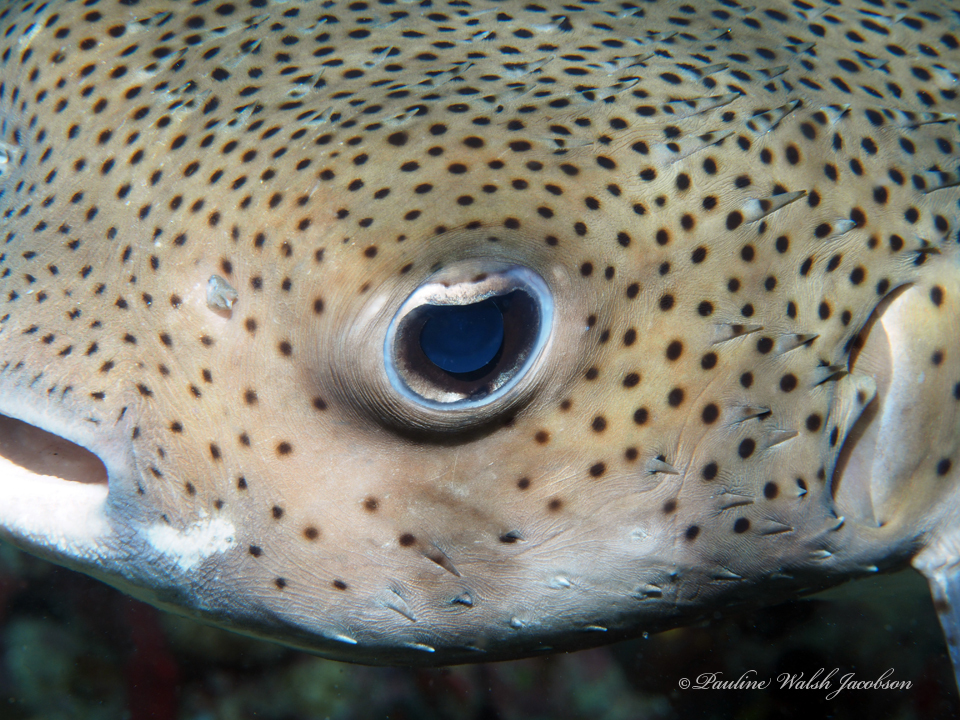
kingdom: Animalia
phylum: Chordata
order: Tetraodontiformes
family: Diodontidae
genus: Diodon
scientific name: Diodon hystrix
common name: Giant porcupinefish
